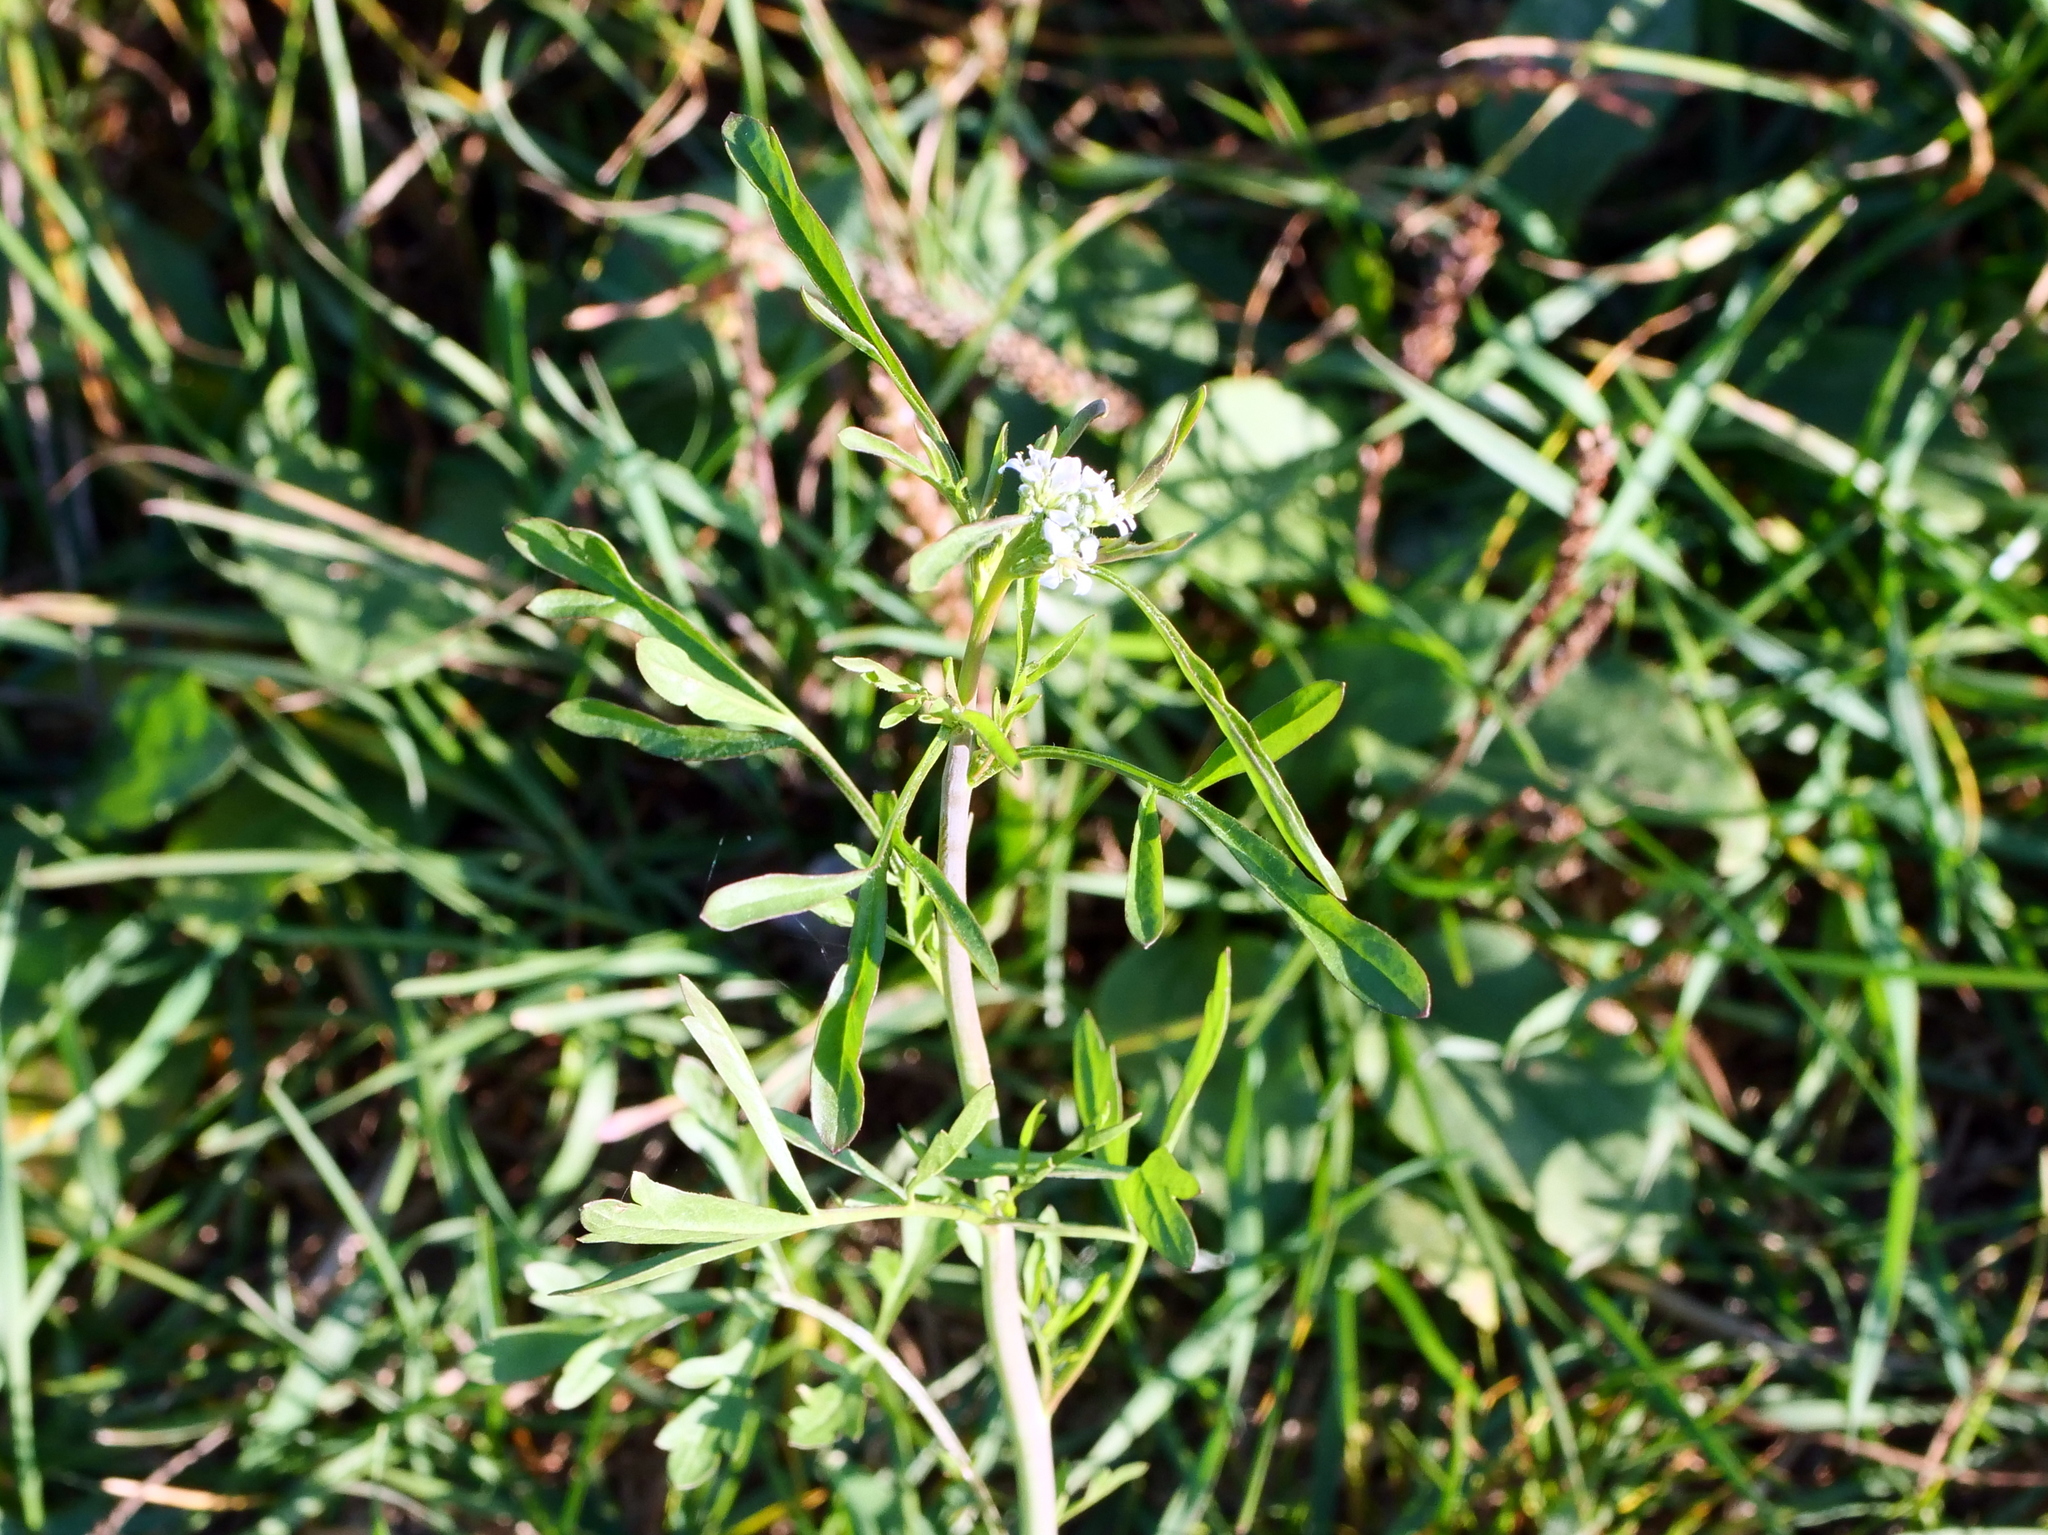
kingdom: Plantae
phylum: Tracheophyta
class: Magnoliopsida
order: Brassicales
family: Brassicaceae
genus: Lepidium
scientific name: Lepidium sativum
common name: Garden cress
